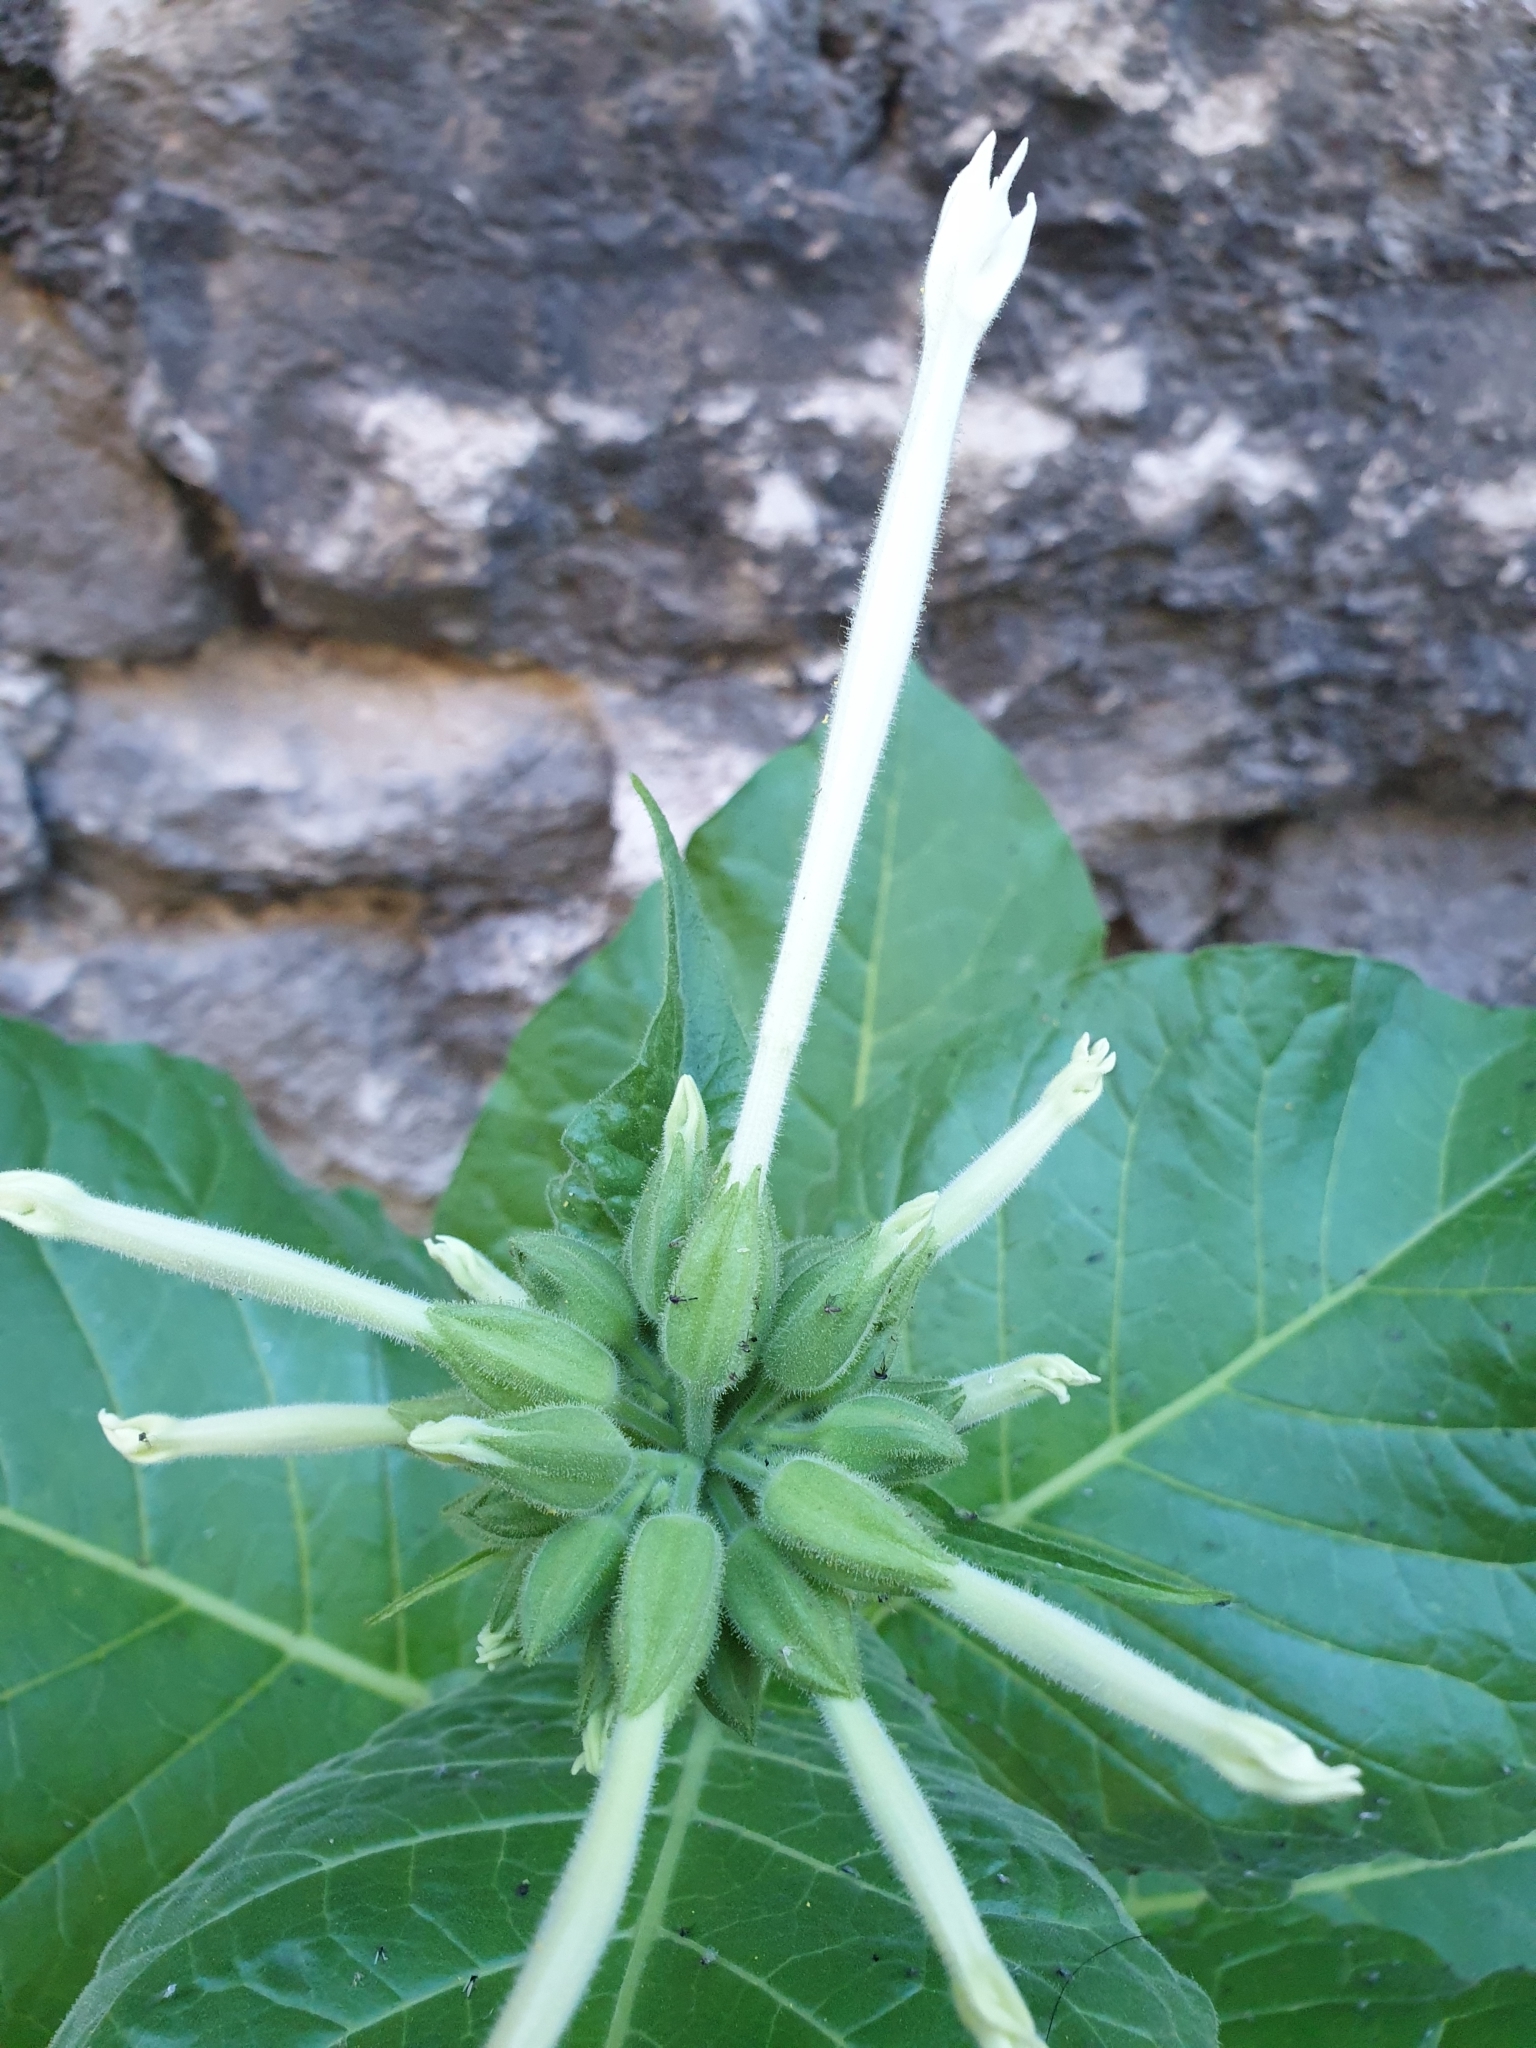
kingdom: Plantae
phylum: Tracheophyta
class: Magnoliopsida
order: Solanales
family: Solanaceae
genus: Nicotiana
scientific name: Nicotiana sylvestris
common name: Flowering tobacco
